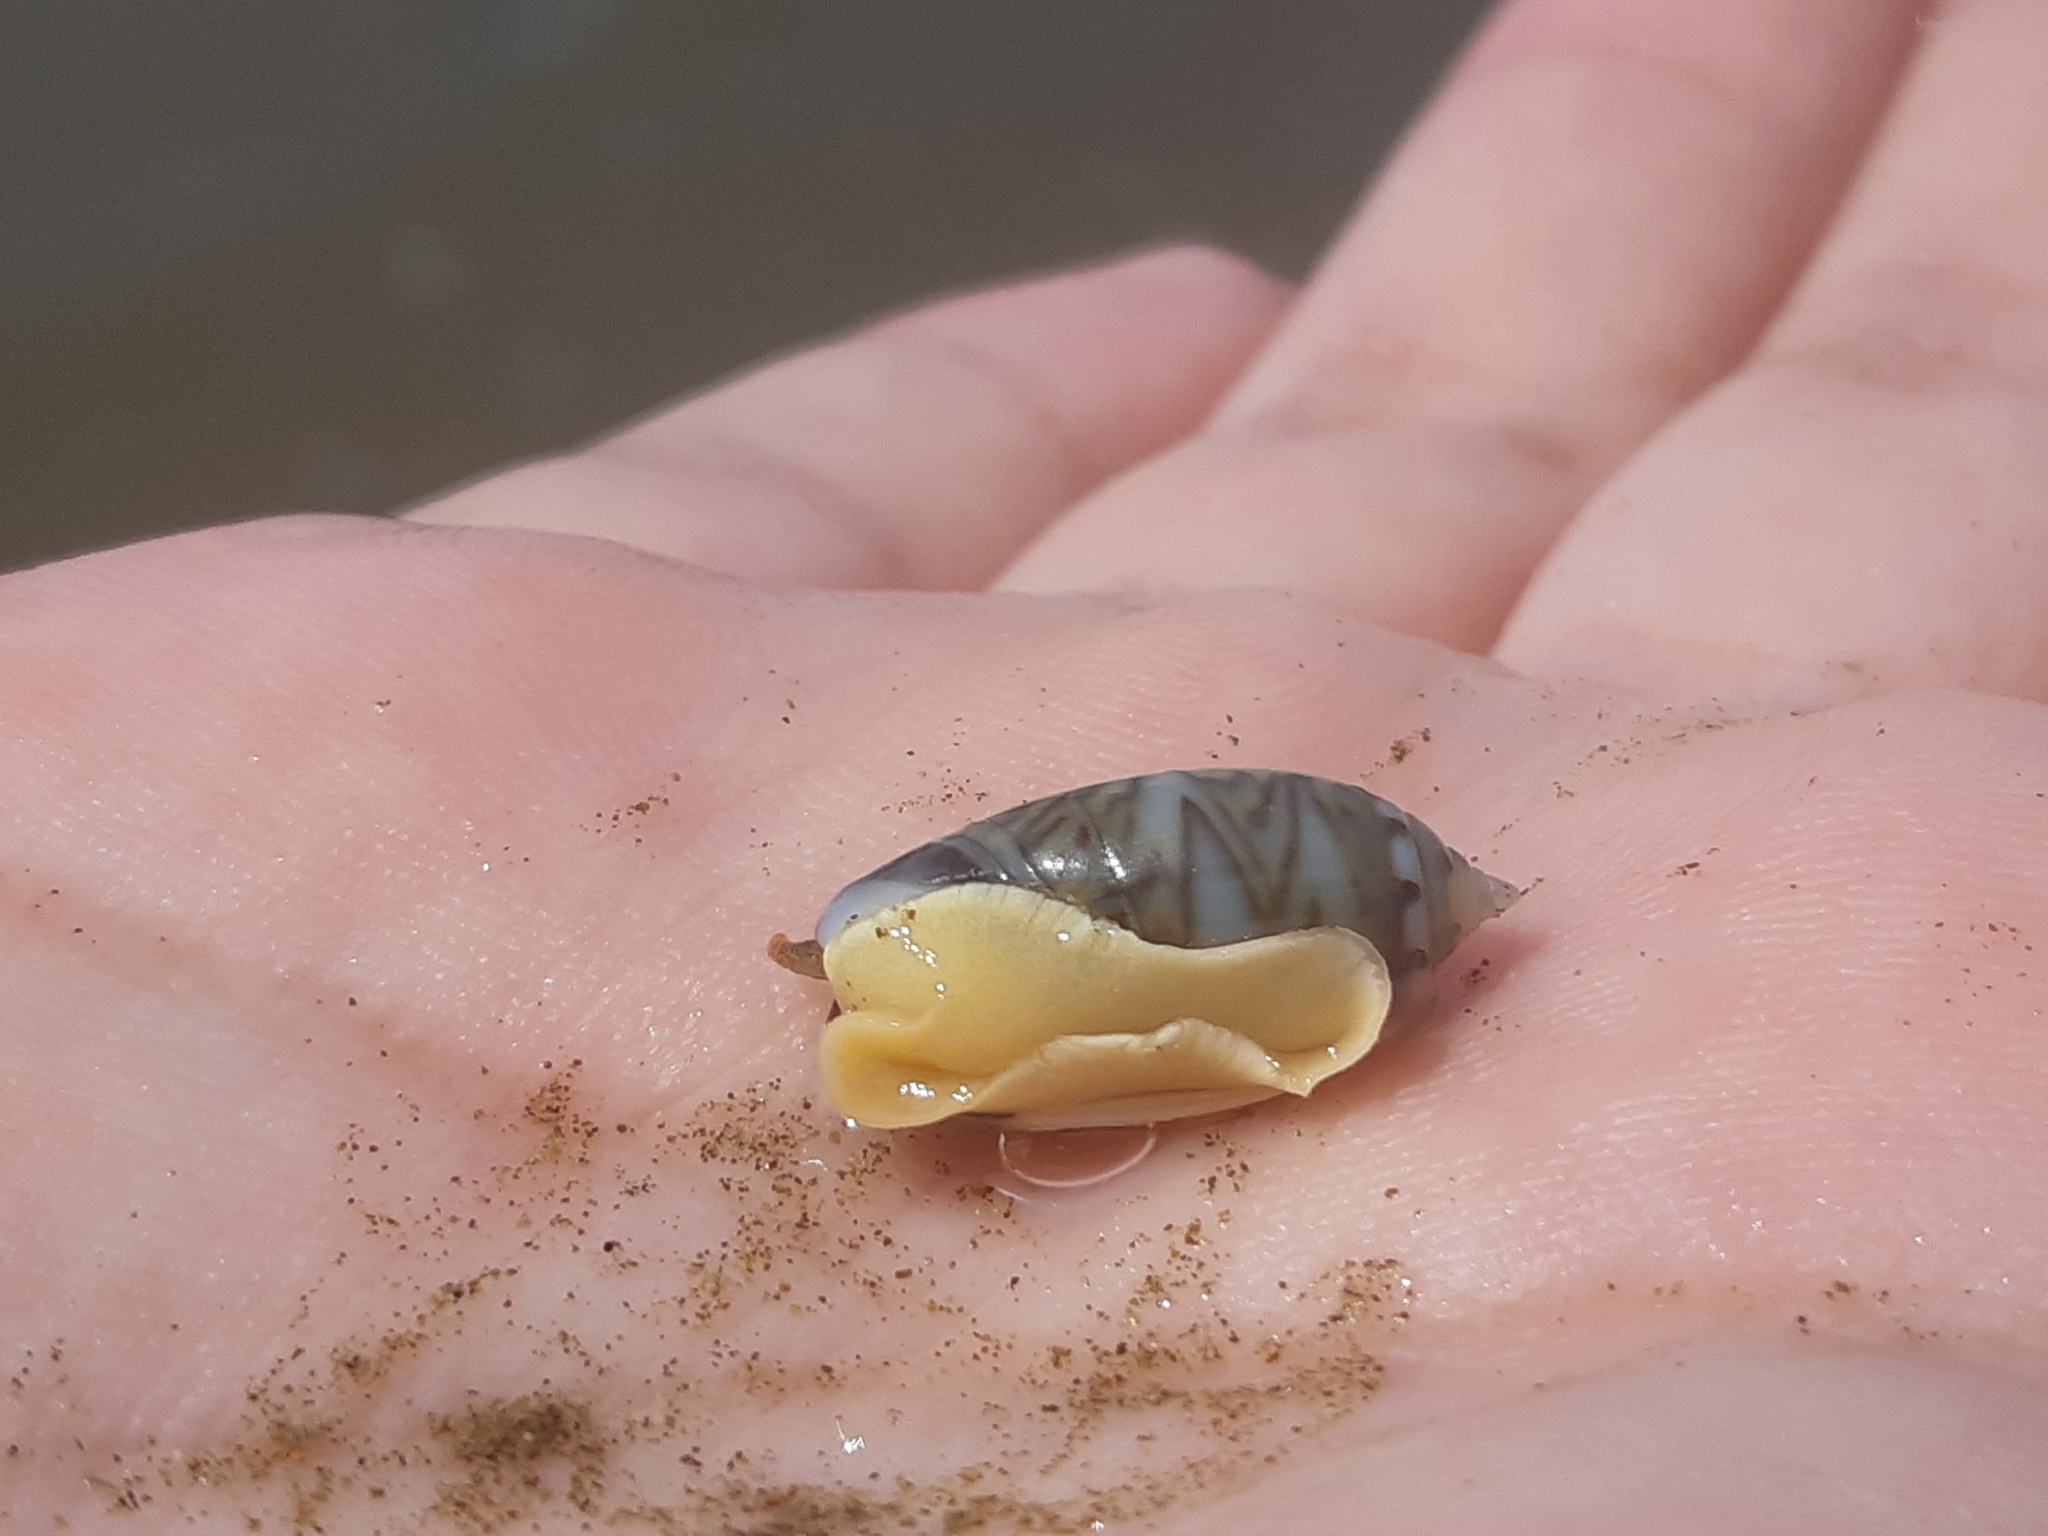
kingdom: Animalia
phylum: Mollusca
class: Gastropoda
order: Neogastropoda
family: Olividae
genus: Oliva
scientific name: Oliva undatella
